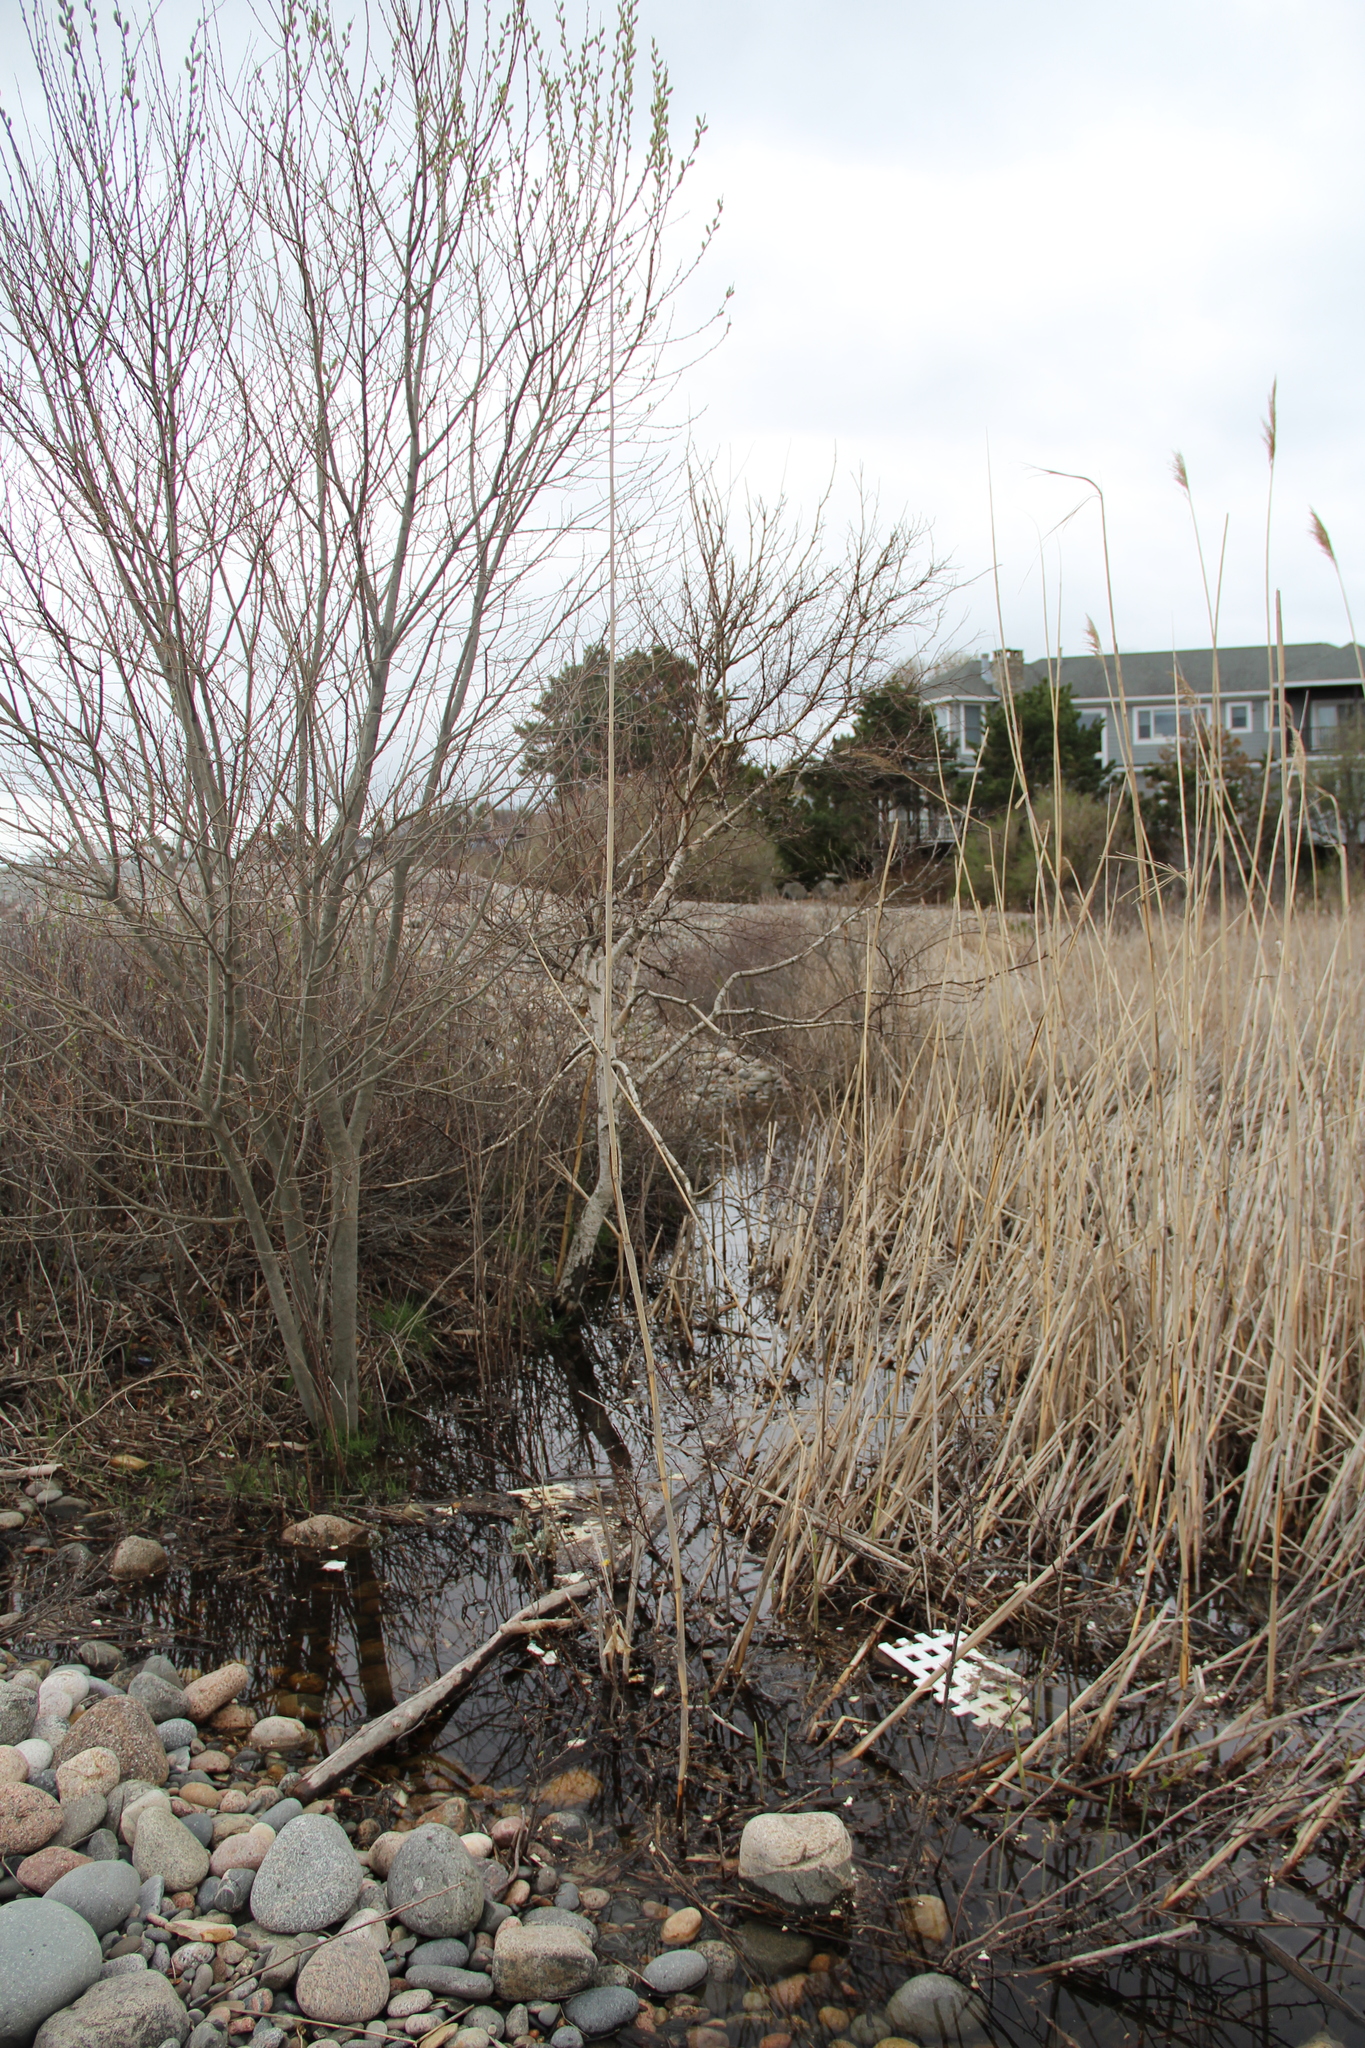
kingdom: Plantae
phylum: Tracheophyta
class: Liliopsida
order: Poales
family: Poaceae
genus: Phragmites
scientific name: Phragmites australis
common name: Common reed
